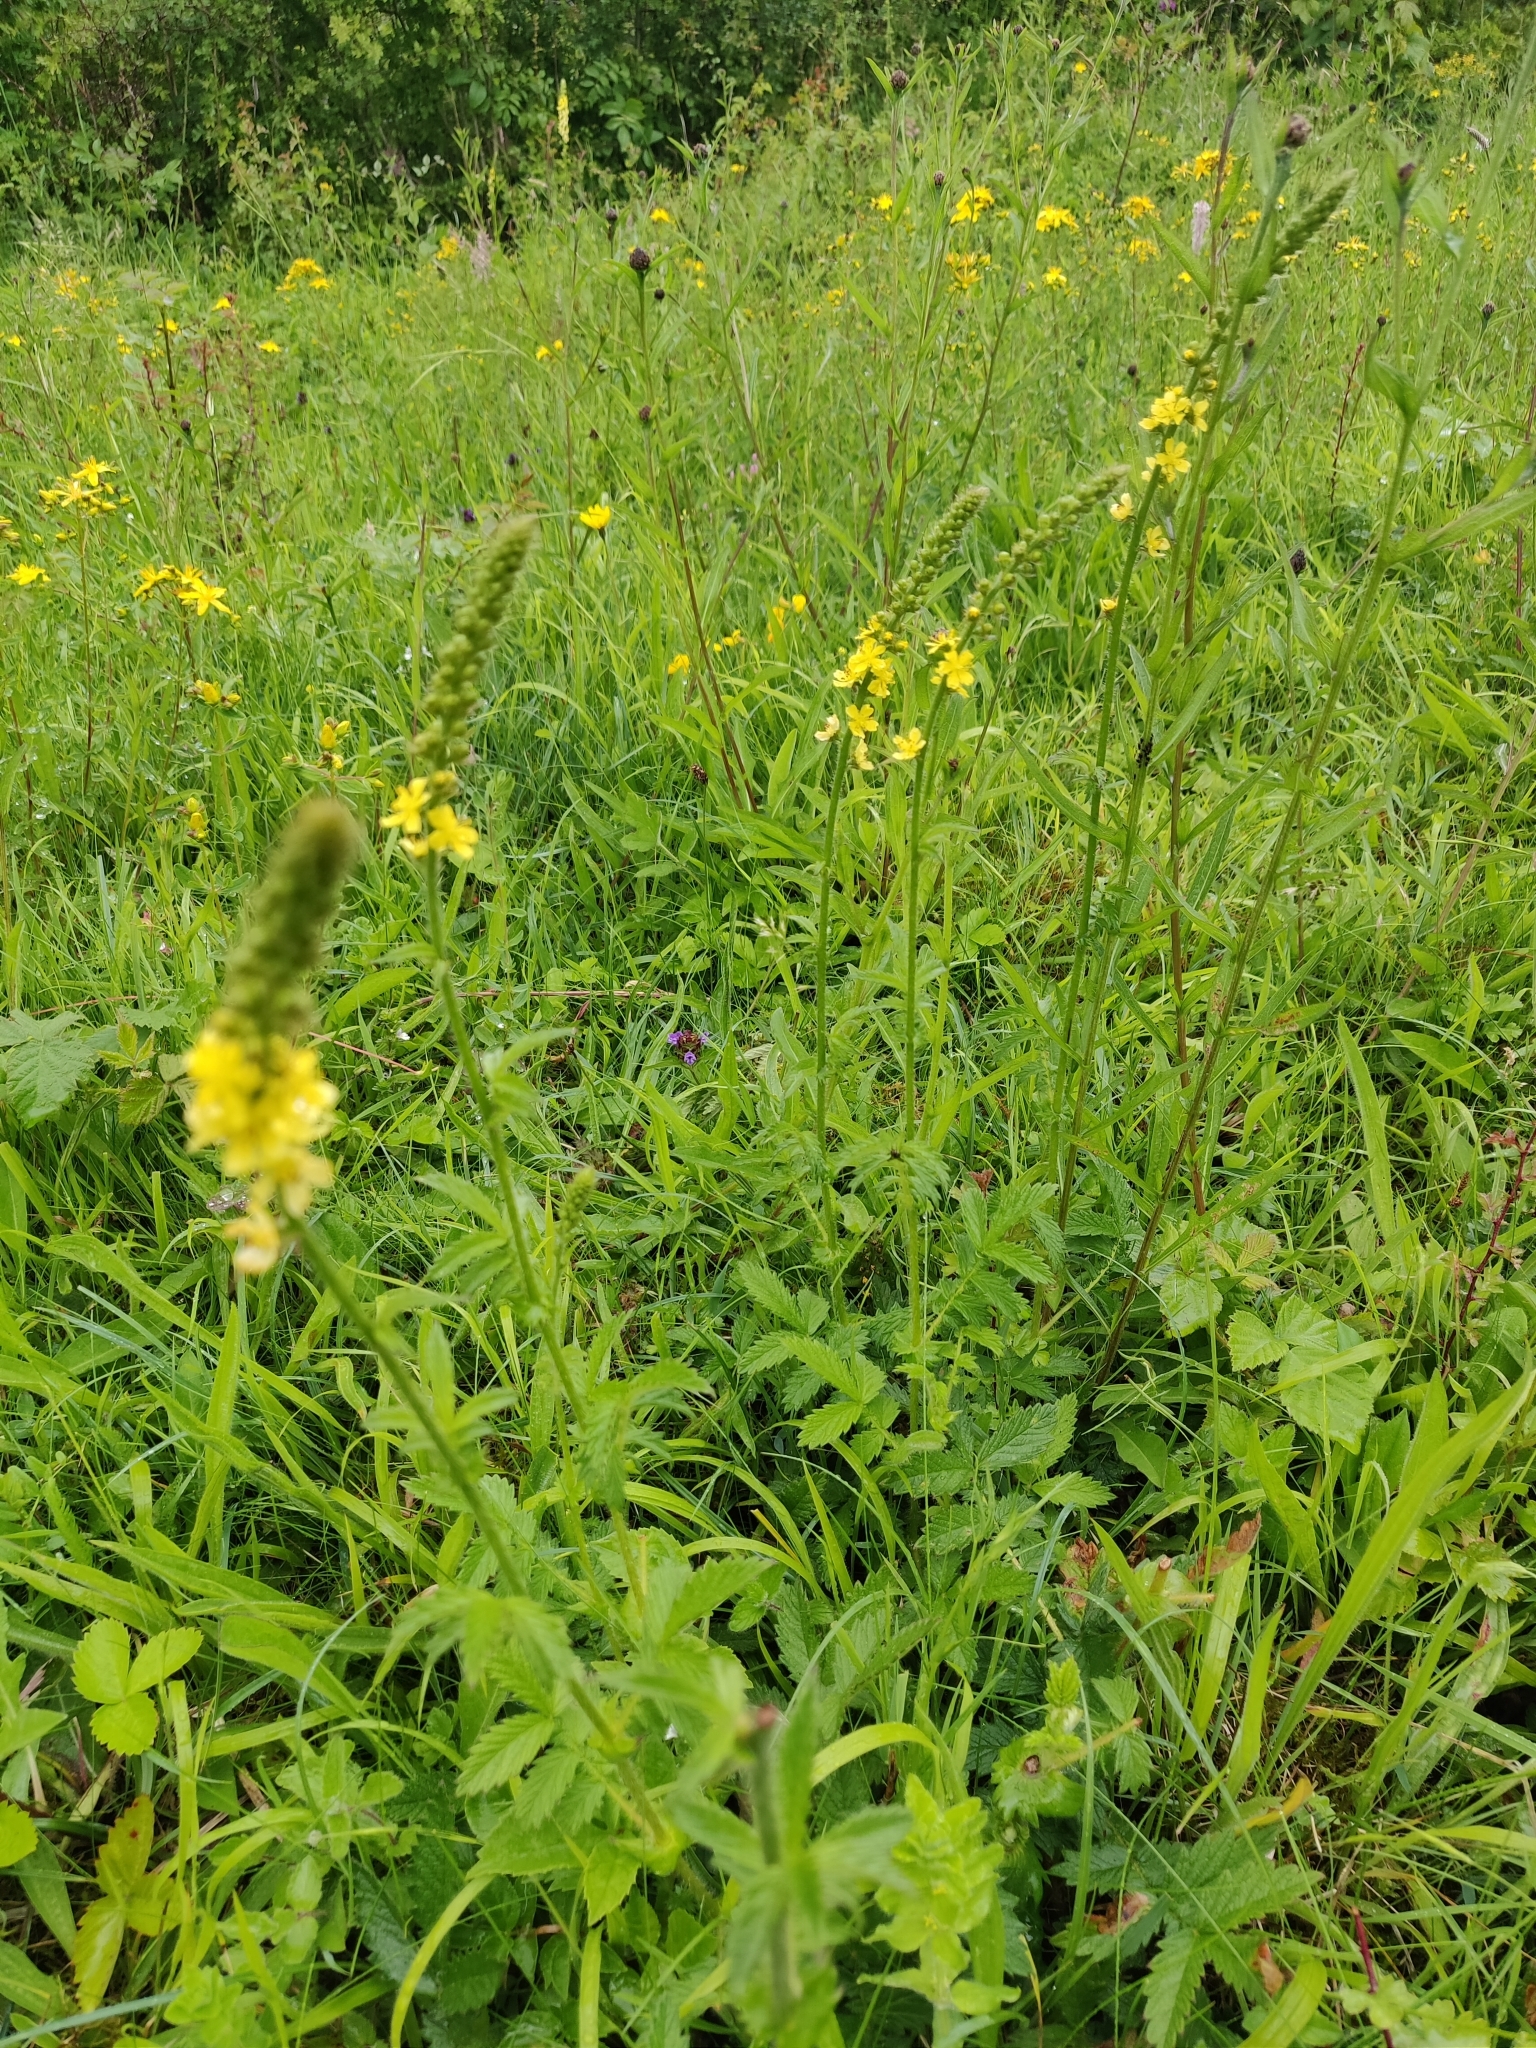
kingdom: Plantae
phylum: Tracheophyta
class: Magnoliopsida
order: Rosales
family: Rosaceae
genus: Agrimonia
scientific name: Agrimonia eupatoria
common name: Agrimony
